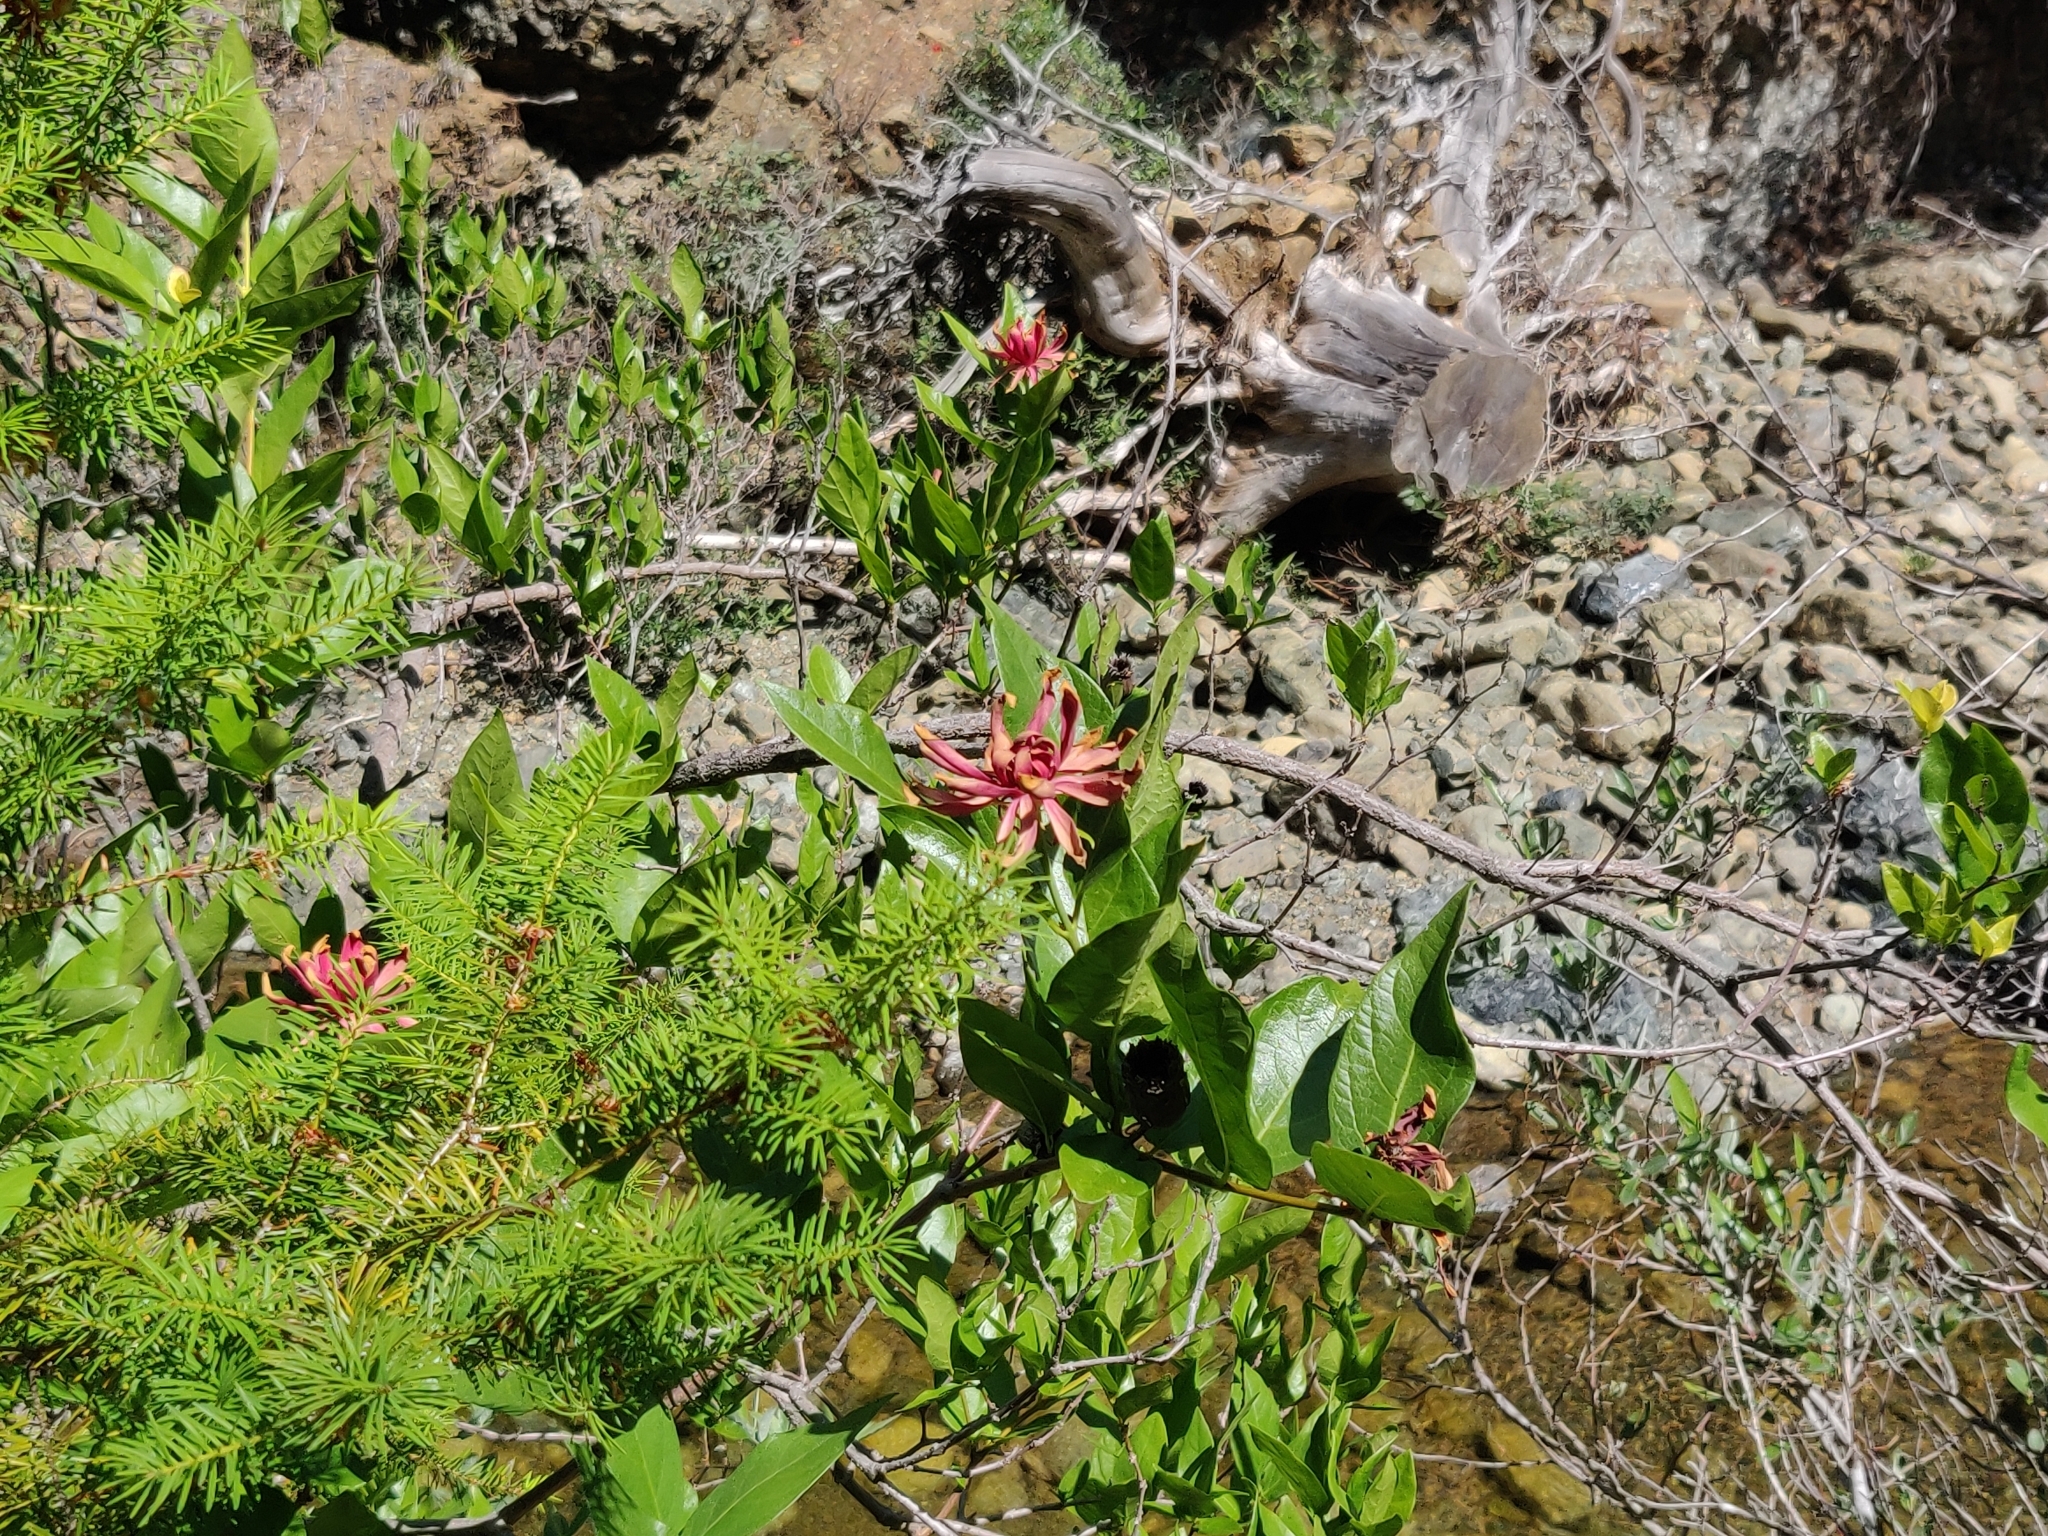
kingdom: Plantae
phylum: Tracheophyta
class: Magnoliopsida
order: Laurales
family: Calycanthaceae
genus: Calycanthus
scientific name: Calycanthus occidentalis
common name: California spicebush
